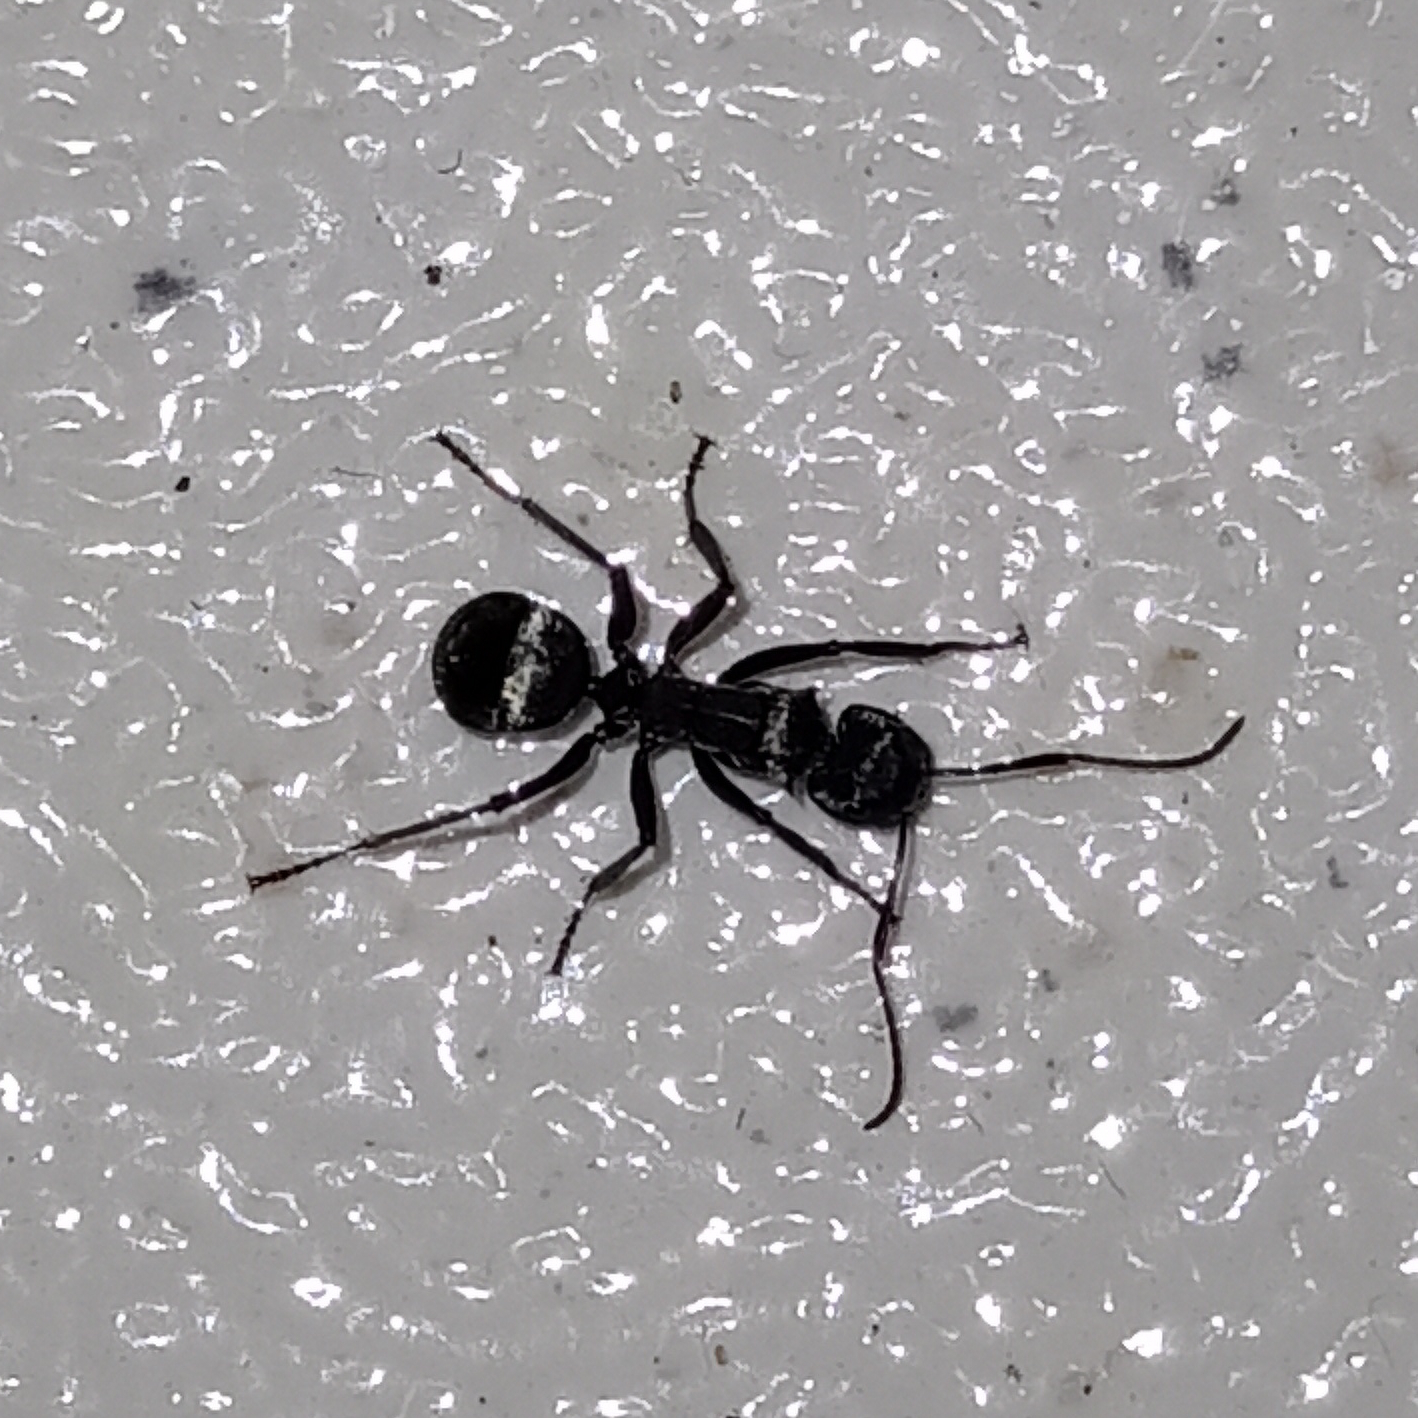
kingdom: Animalia
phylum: Arthropoda
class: Insecta
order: Hymenoptera
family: Formicidae
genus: Camponotus
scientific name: Camponotus sericeiventris
